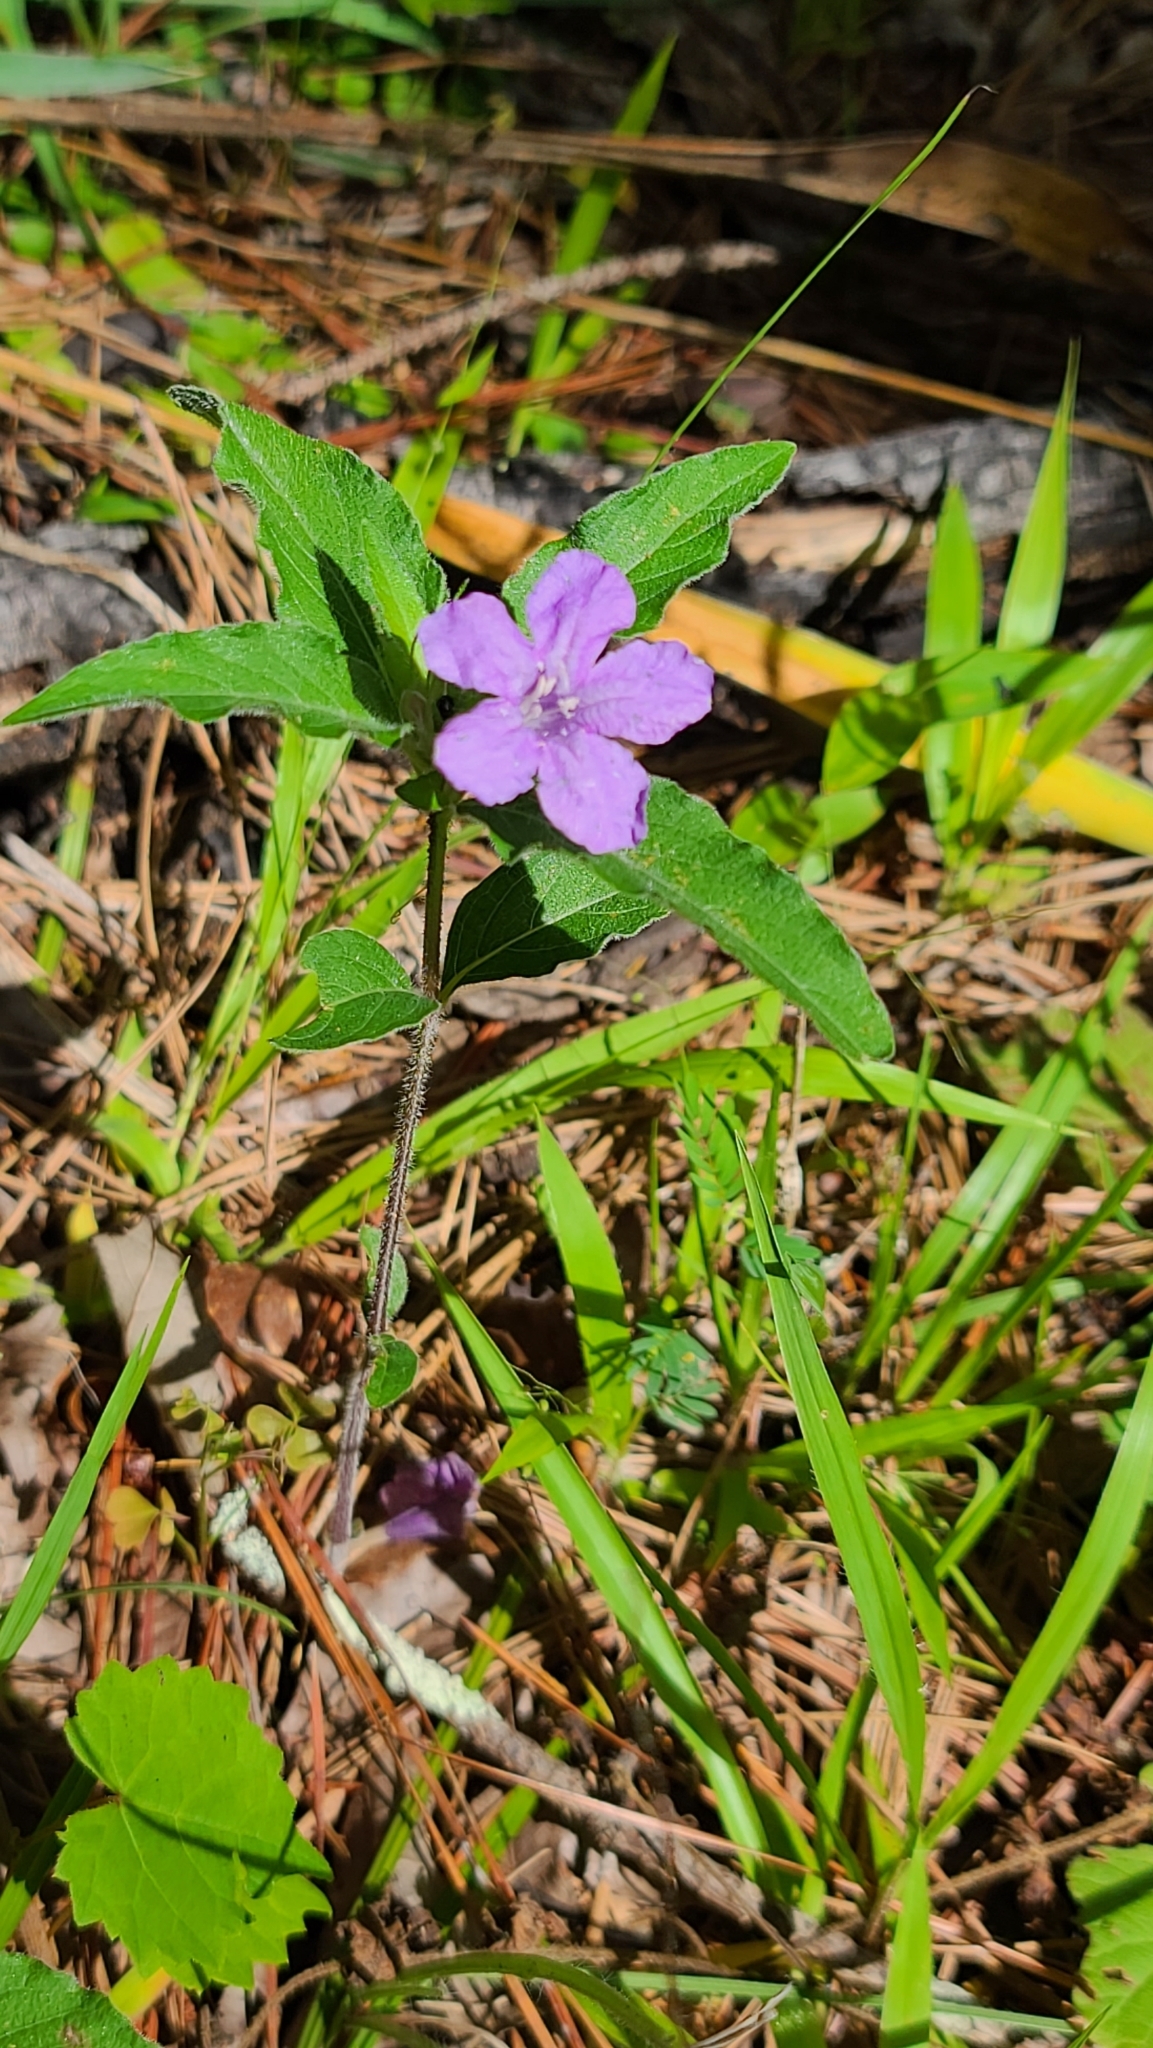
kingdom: Plantae
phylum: Tracheophyta
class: Magnoliopsida
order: Lamiales
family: Acanthaceae
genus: Ruellia
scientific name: Ruellia caroliniensis
